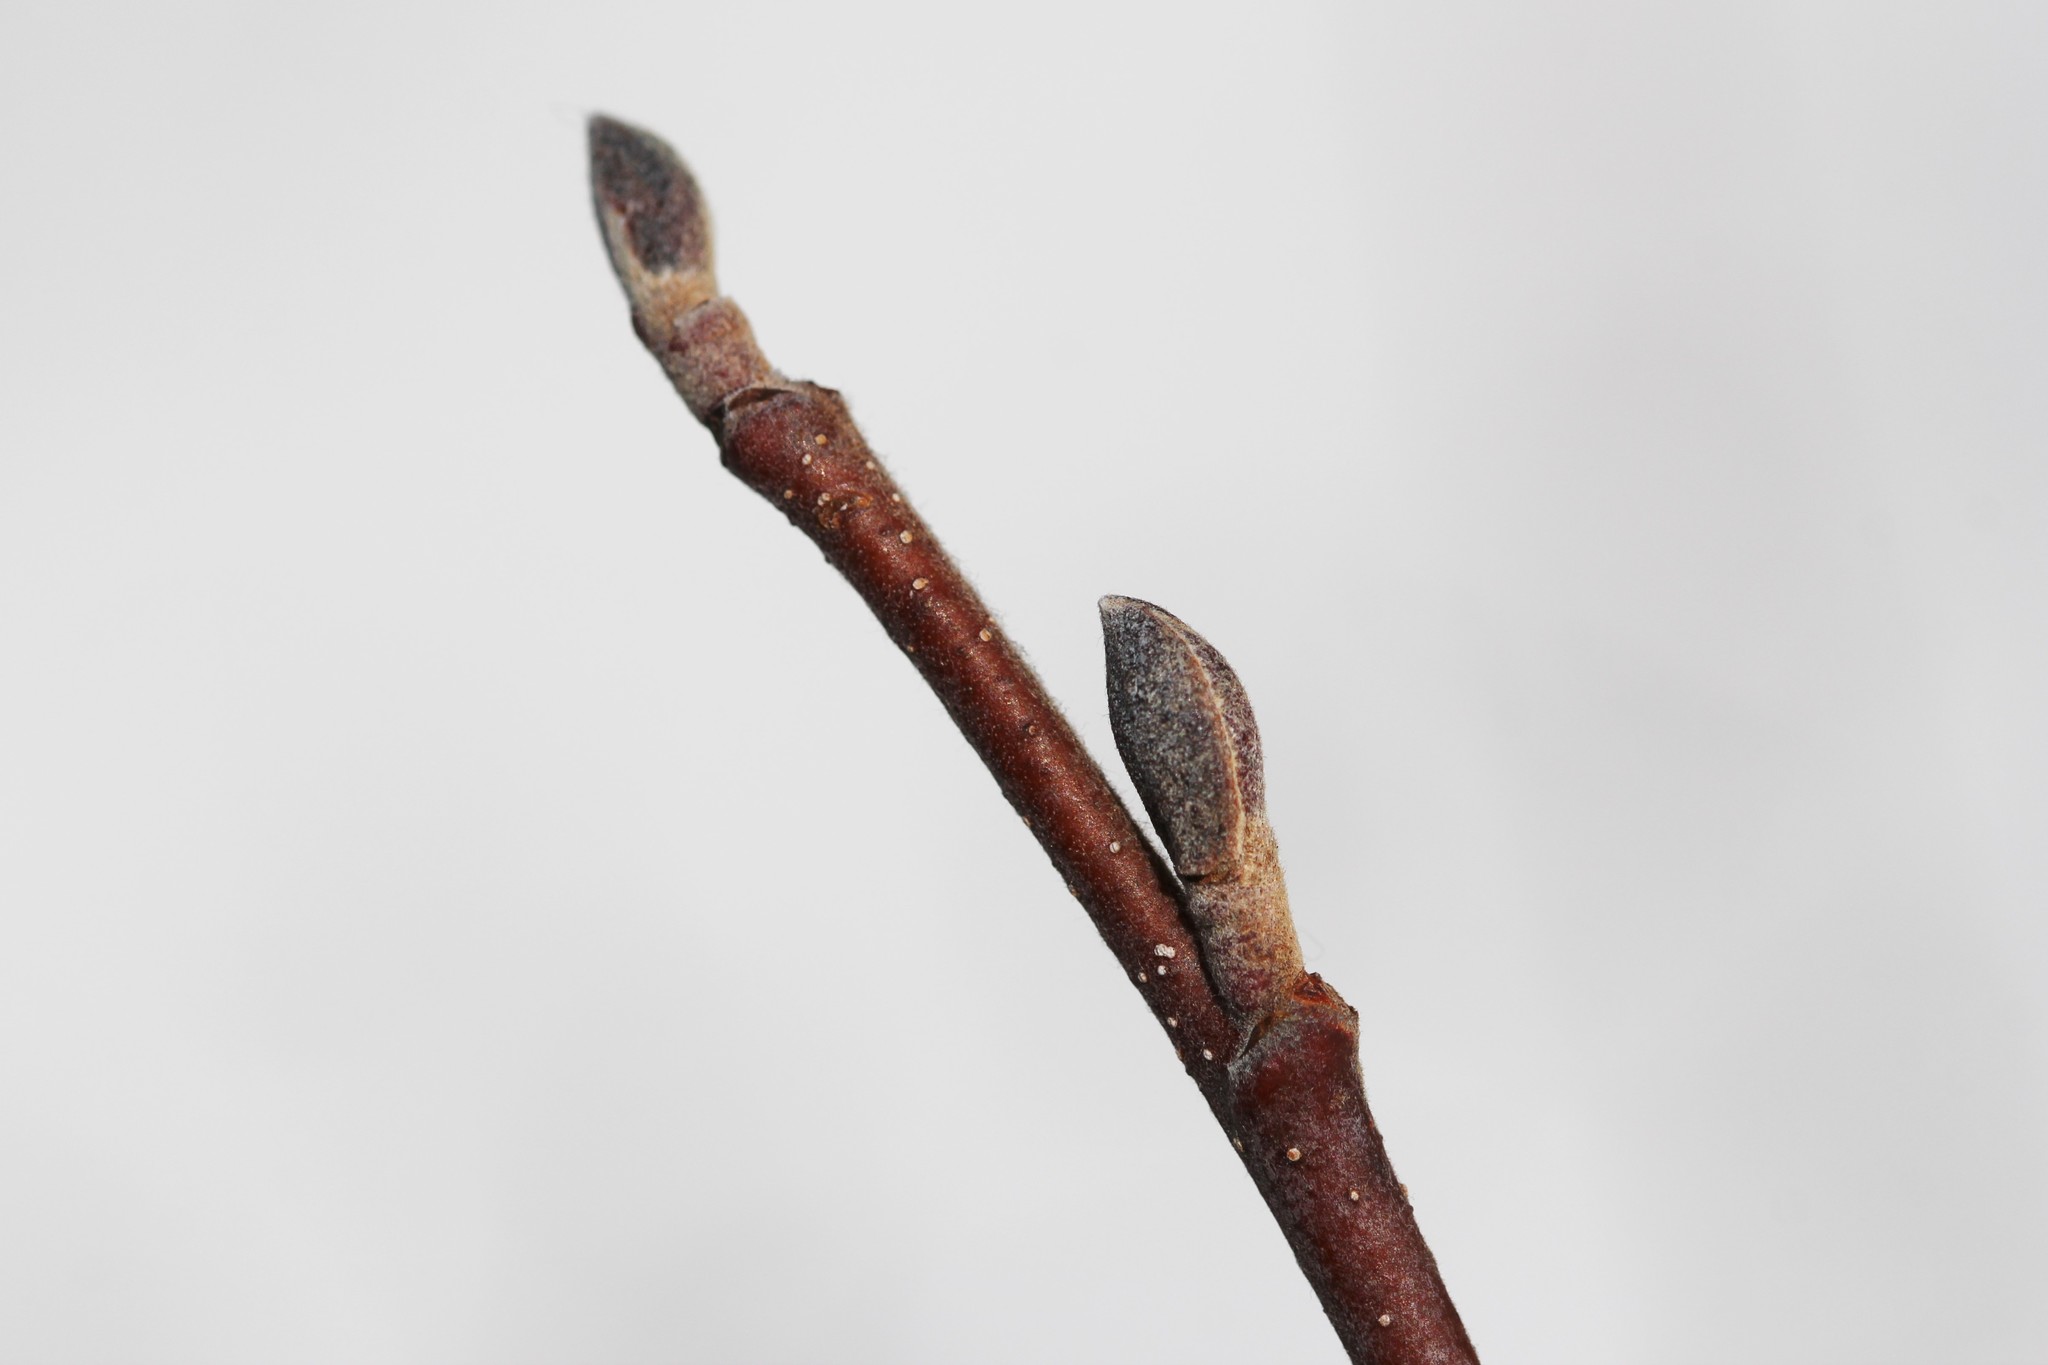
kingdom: Plantae
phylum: Tracheophyta
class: Magnoliopsida
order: Fagales
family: Betulaceae
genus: Alnus
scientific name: Alnus incana
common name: Grey alder
